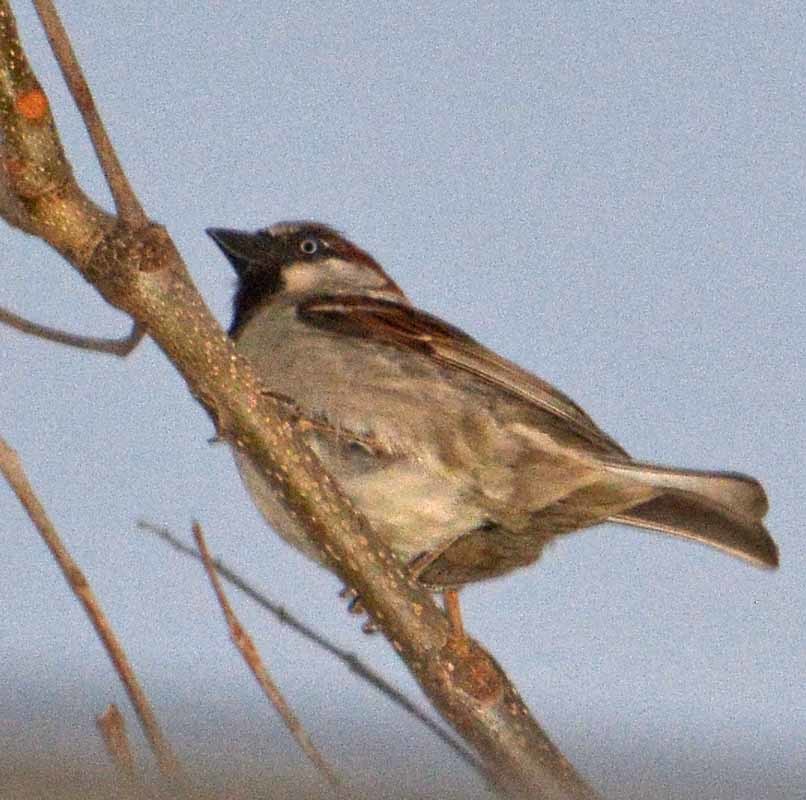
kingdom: Animalia
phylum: Chordata
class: Aves
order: Passeriformes
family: Passeridae
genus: Passer
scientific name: Passer domesticus
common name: House sparrow
